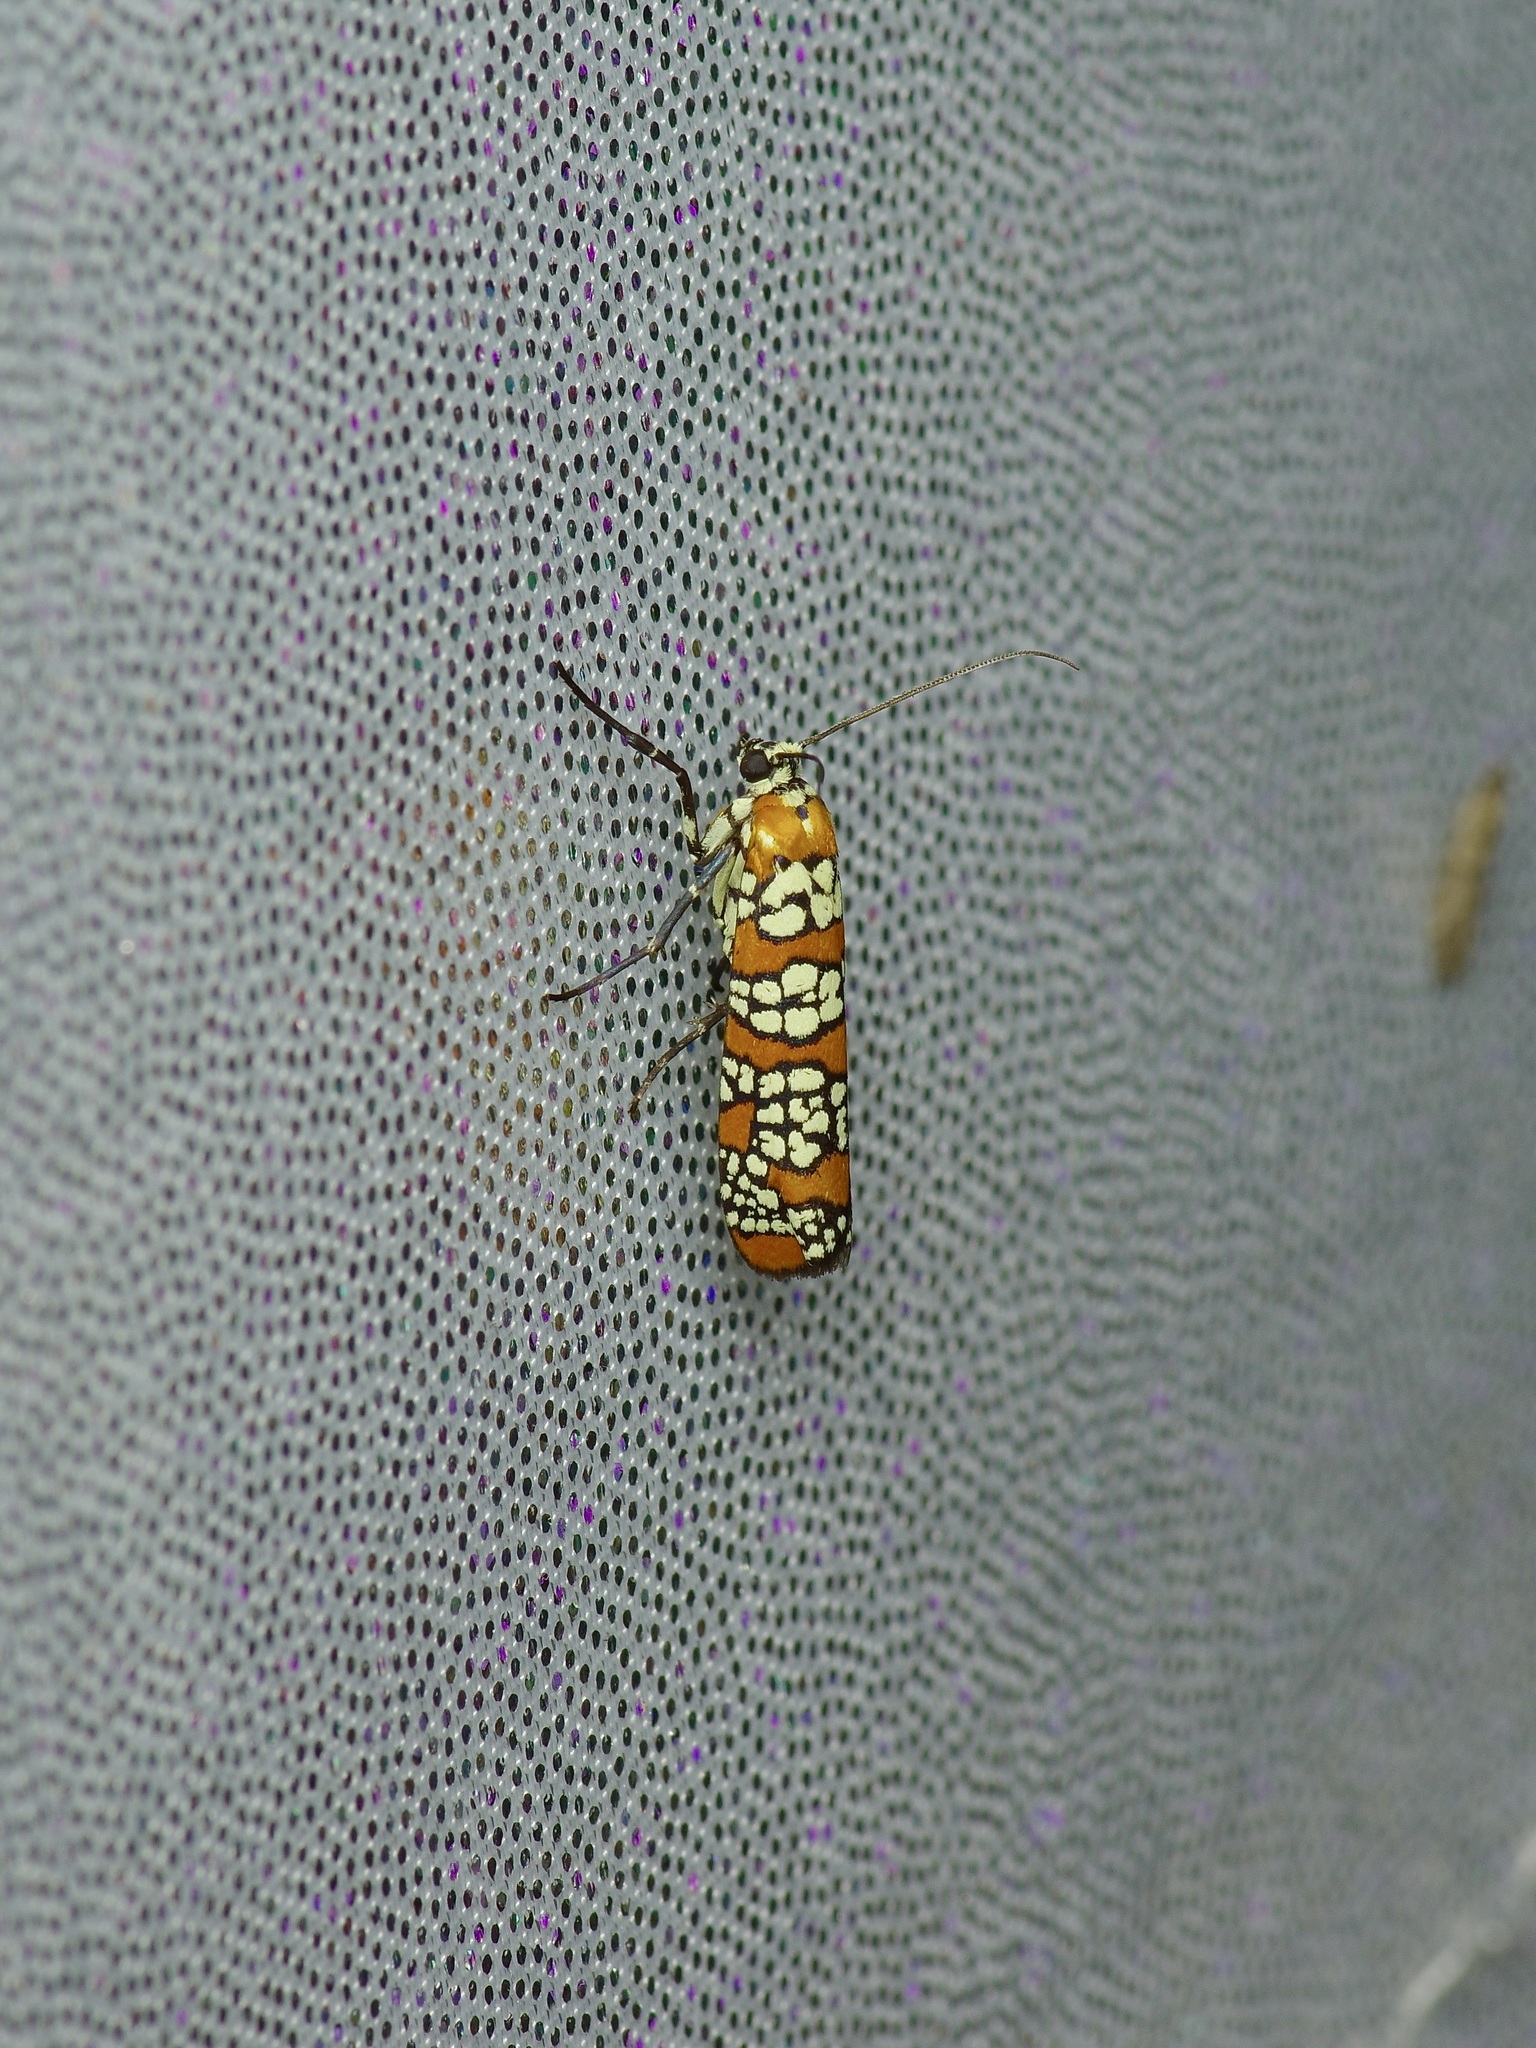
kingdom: Animalia
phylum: Arthropoda
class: Insecta
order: Lepidoptera
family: Attevidae
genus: Atteva
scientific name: Atteva punctella
